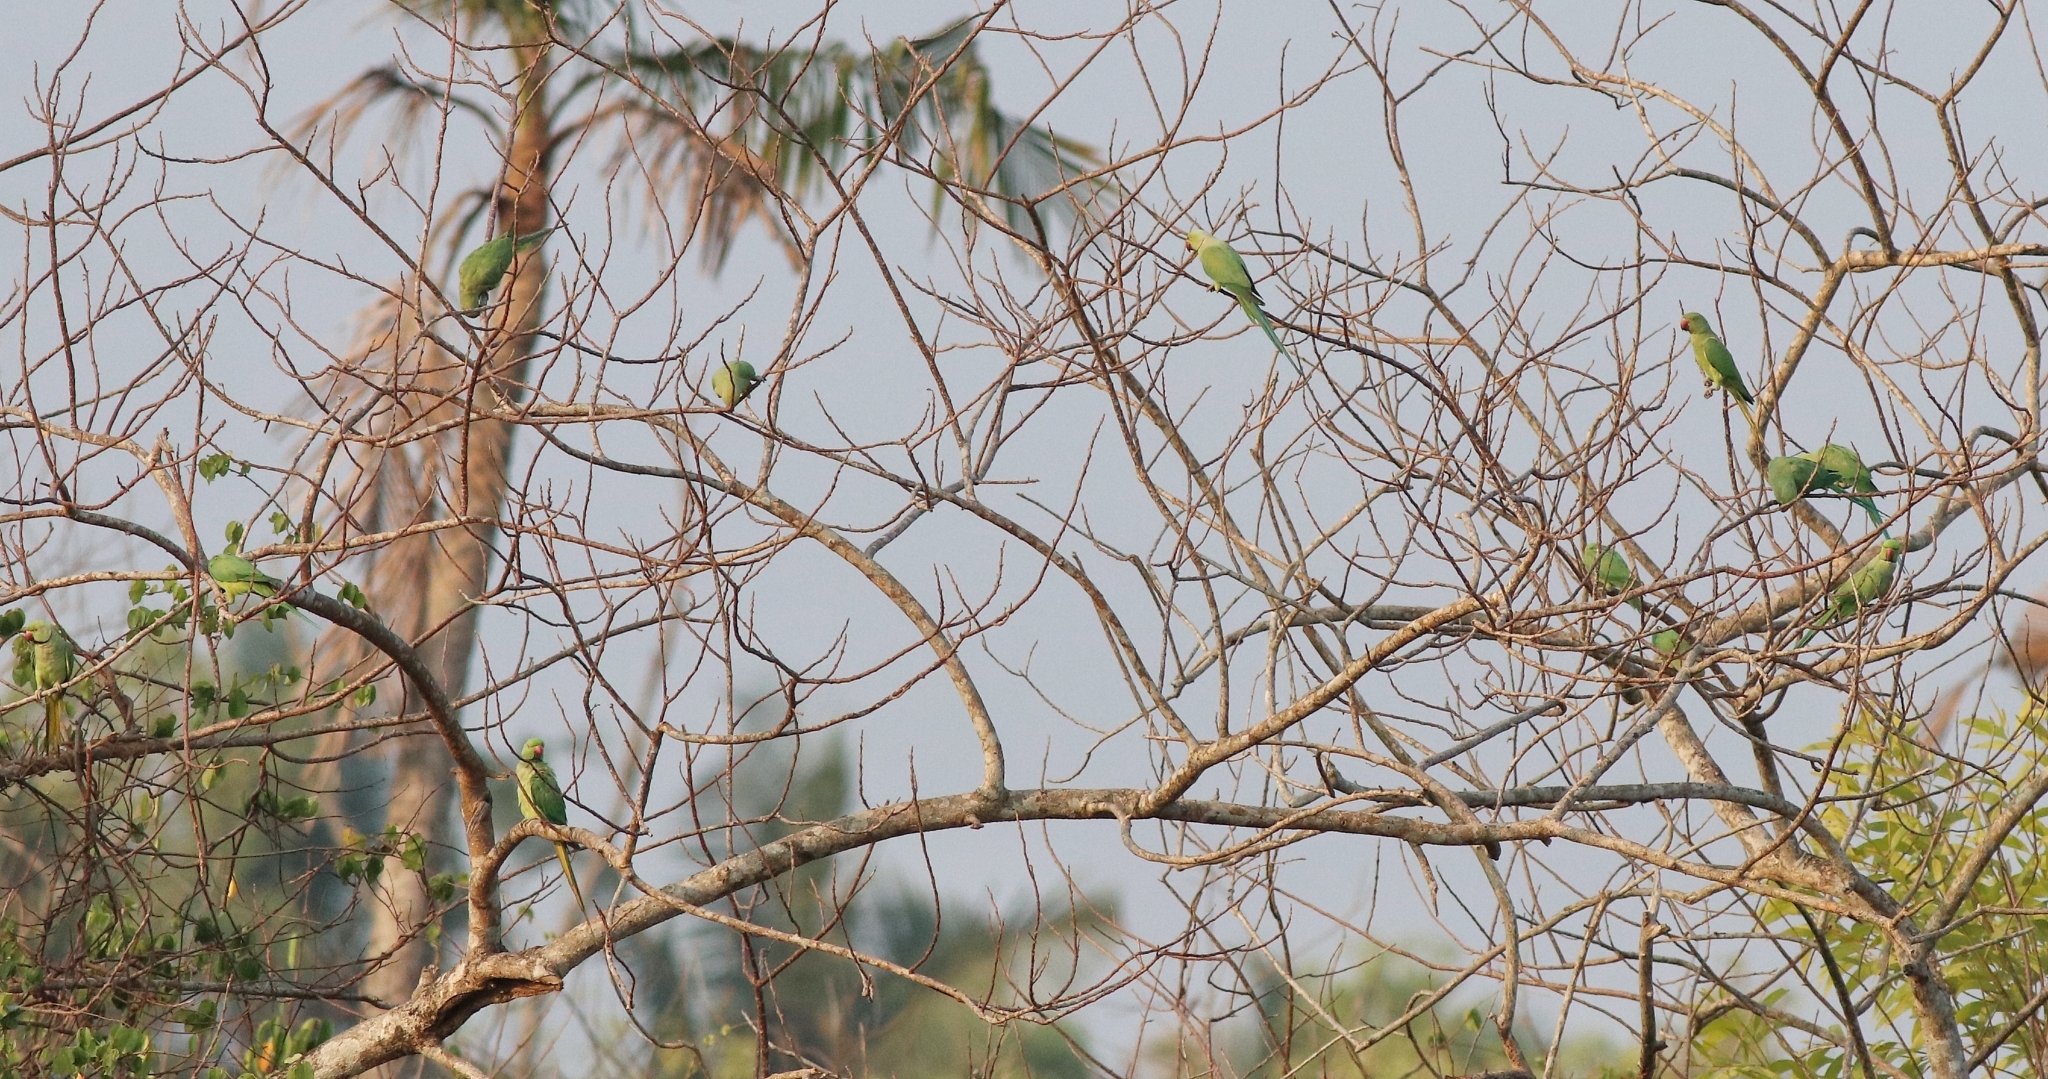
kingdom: Animalia
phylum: Chordata
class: Aves
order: Psittaciformes
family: Psittacidae
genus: Psittacula
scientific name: Psittacula krameri
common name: Rose-ringed parakeet
